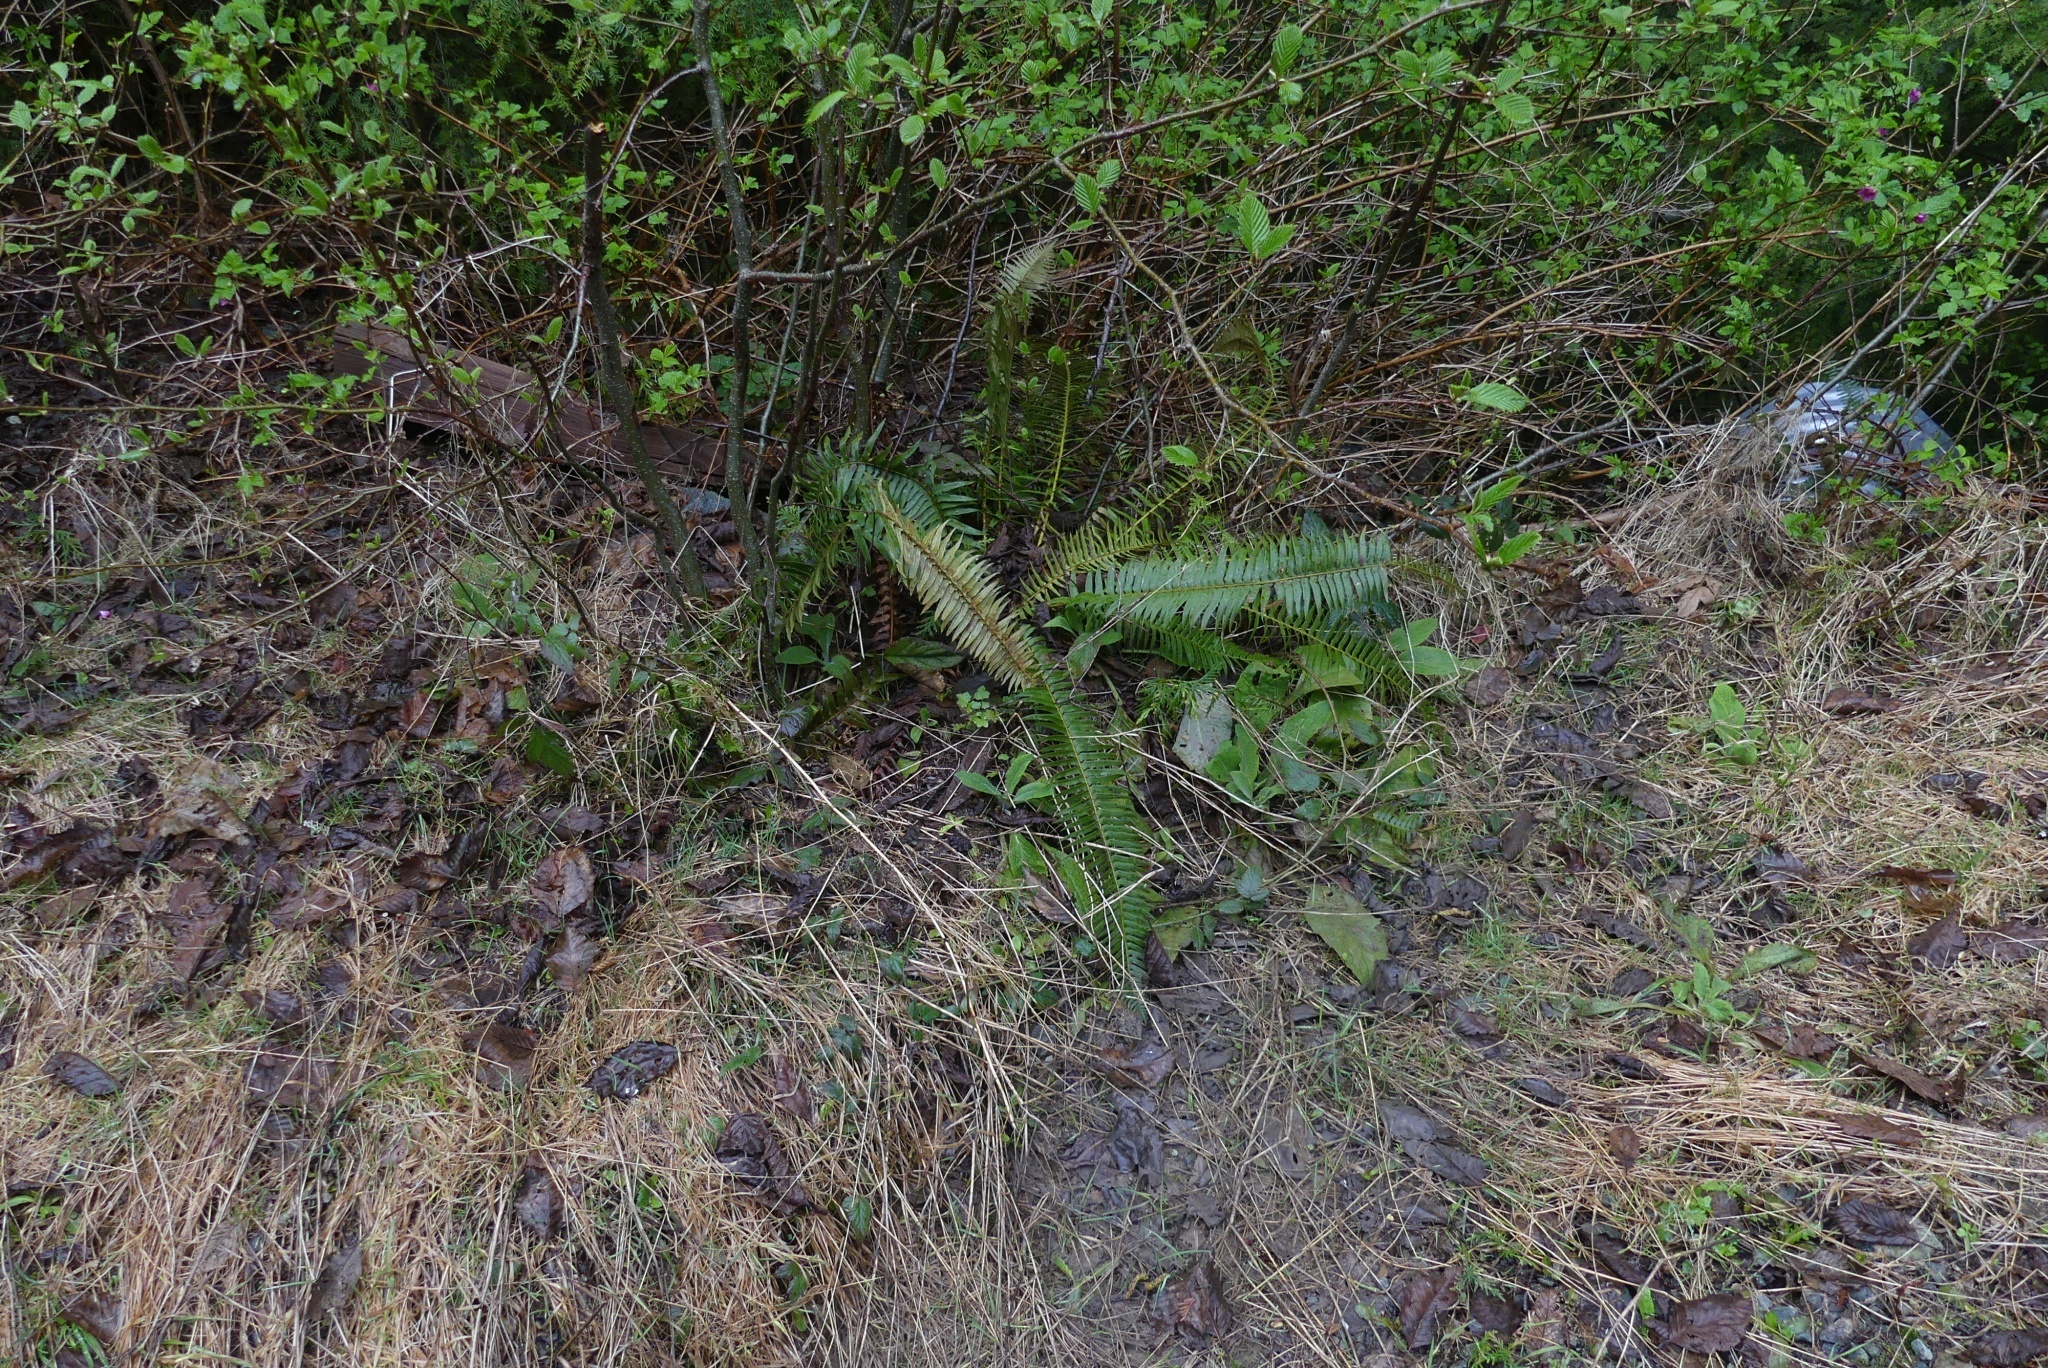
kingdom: Plantae
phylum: Tracheophyta
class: Polypodiopsida
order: Polypodiales
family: Dryopteridaceae
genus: Polystichum
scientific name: Polystichum munitum
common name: Western sword-fern
